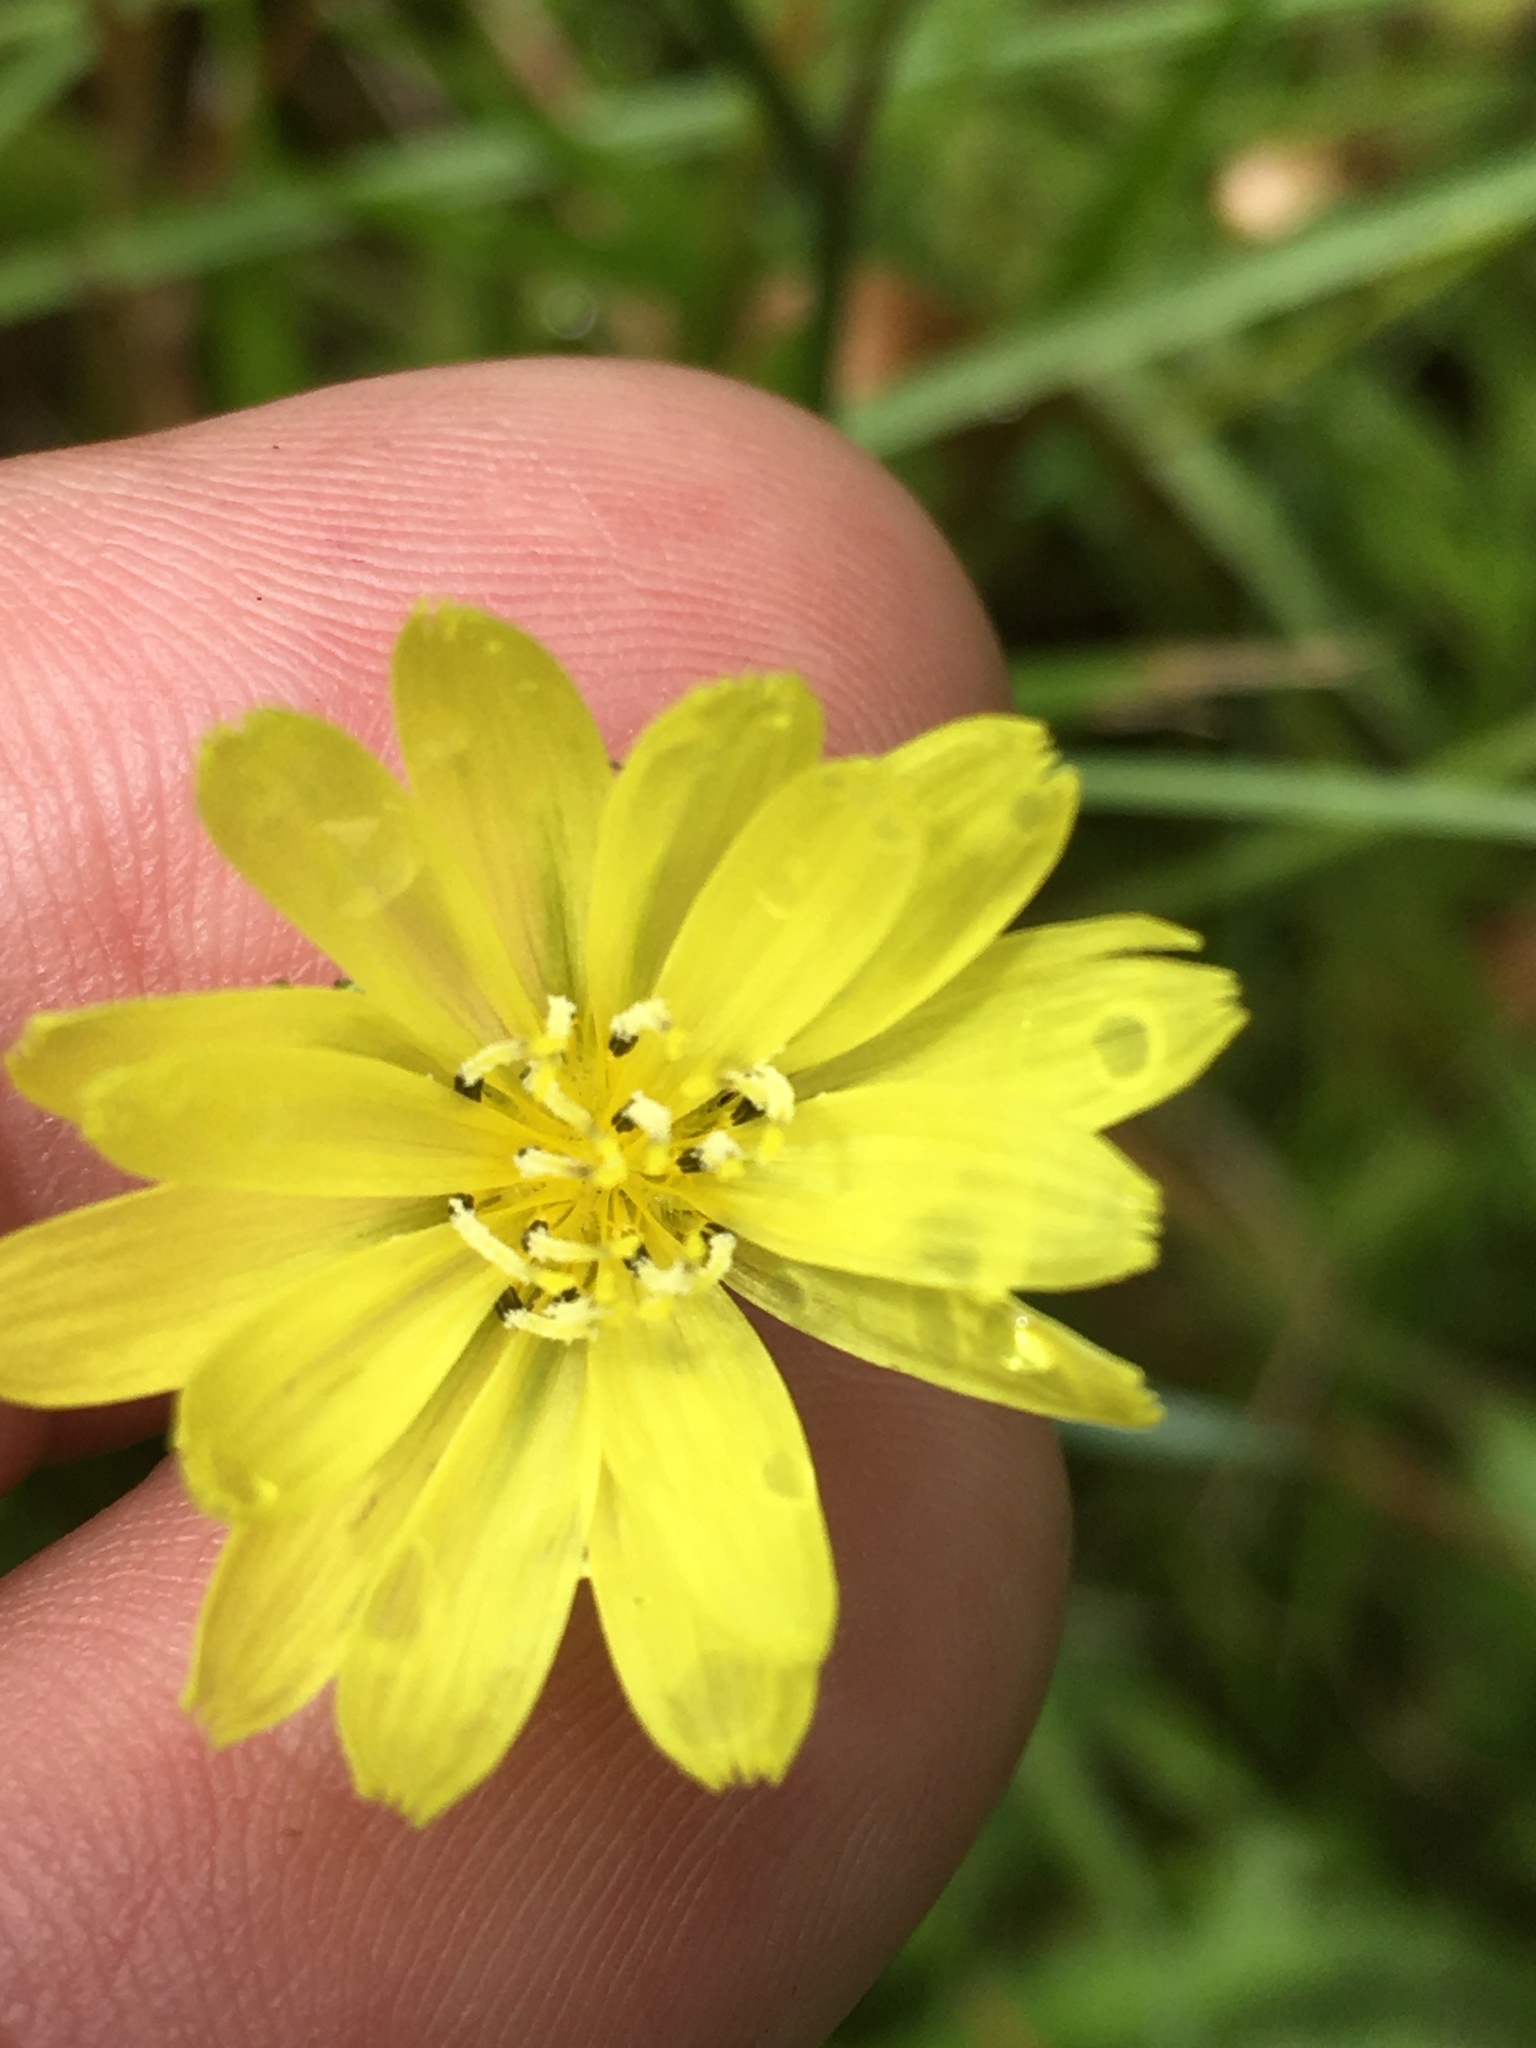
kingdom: Plantae
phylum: Tracheophyta
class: Magnoliopsida
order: Asterales
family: Asteraceae
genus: Pyrrhopappus
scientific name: Pyrrhopappus carolinianus
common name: Carolina desert-chicory
